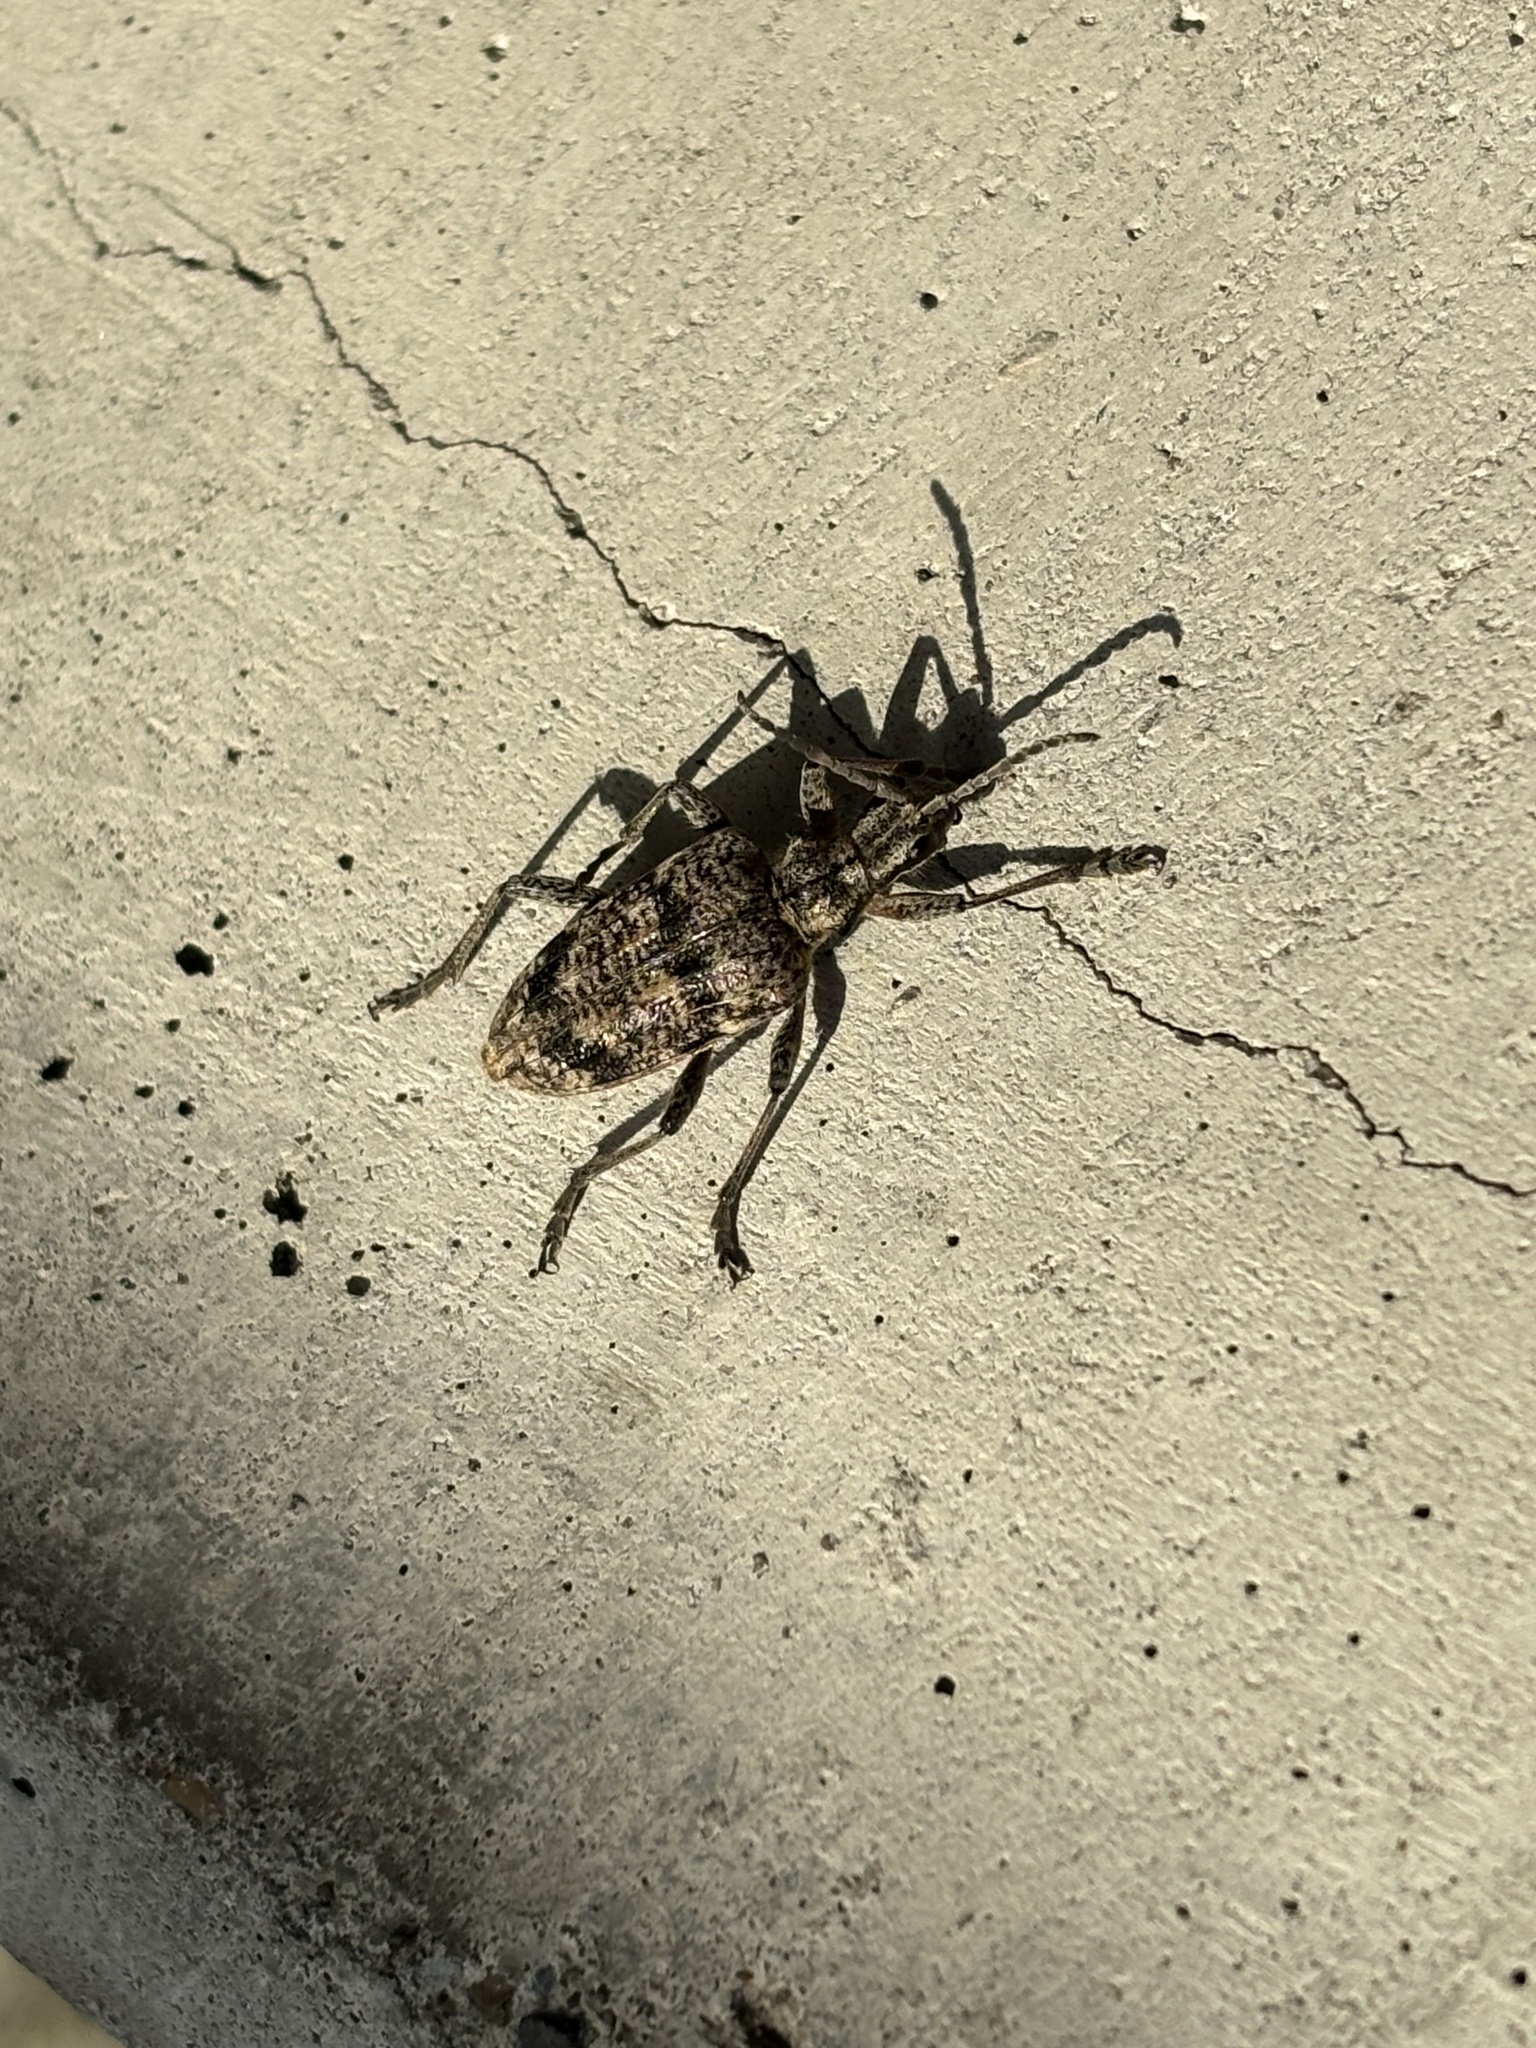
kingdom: Animalia
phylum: Arthropoda
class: Insecta
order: Coleoptera
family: Cerambycidae
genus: Rhagium
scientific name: Rhagium inquisitor
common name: Ribbed pine borer
